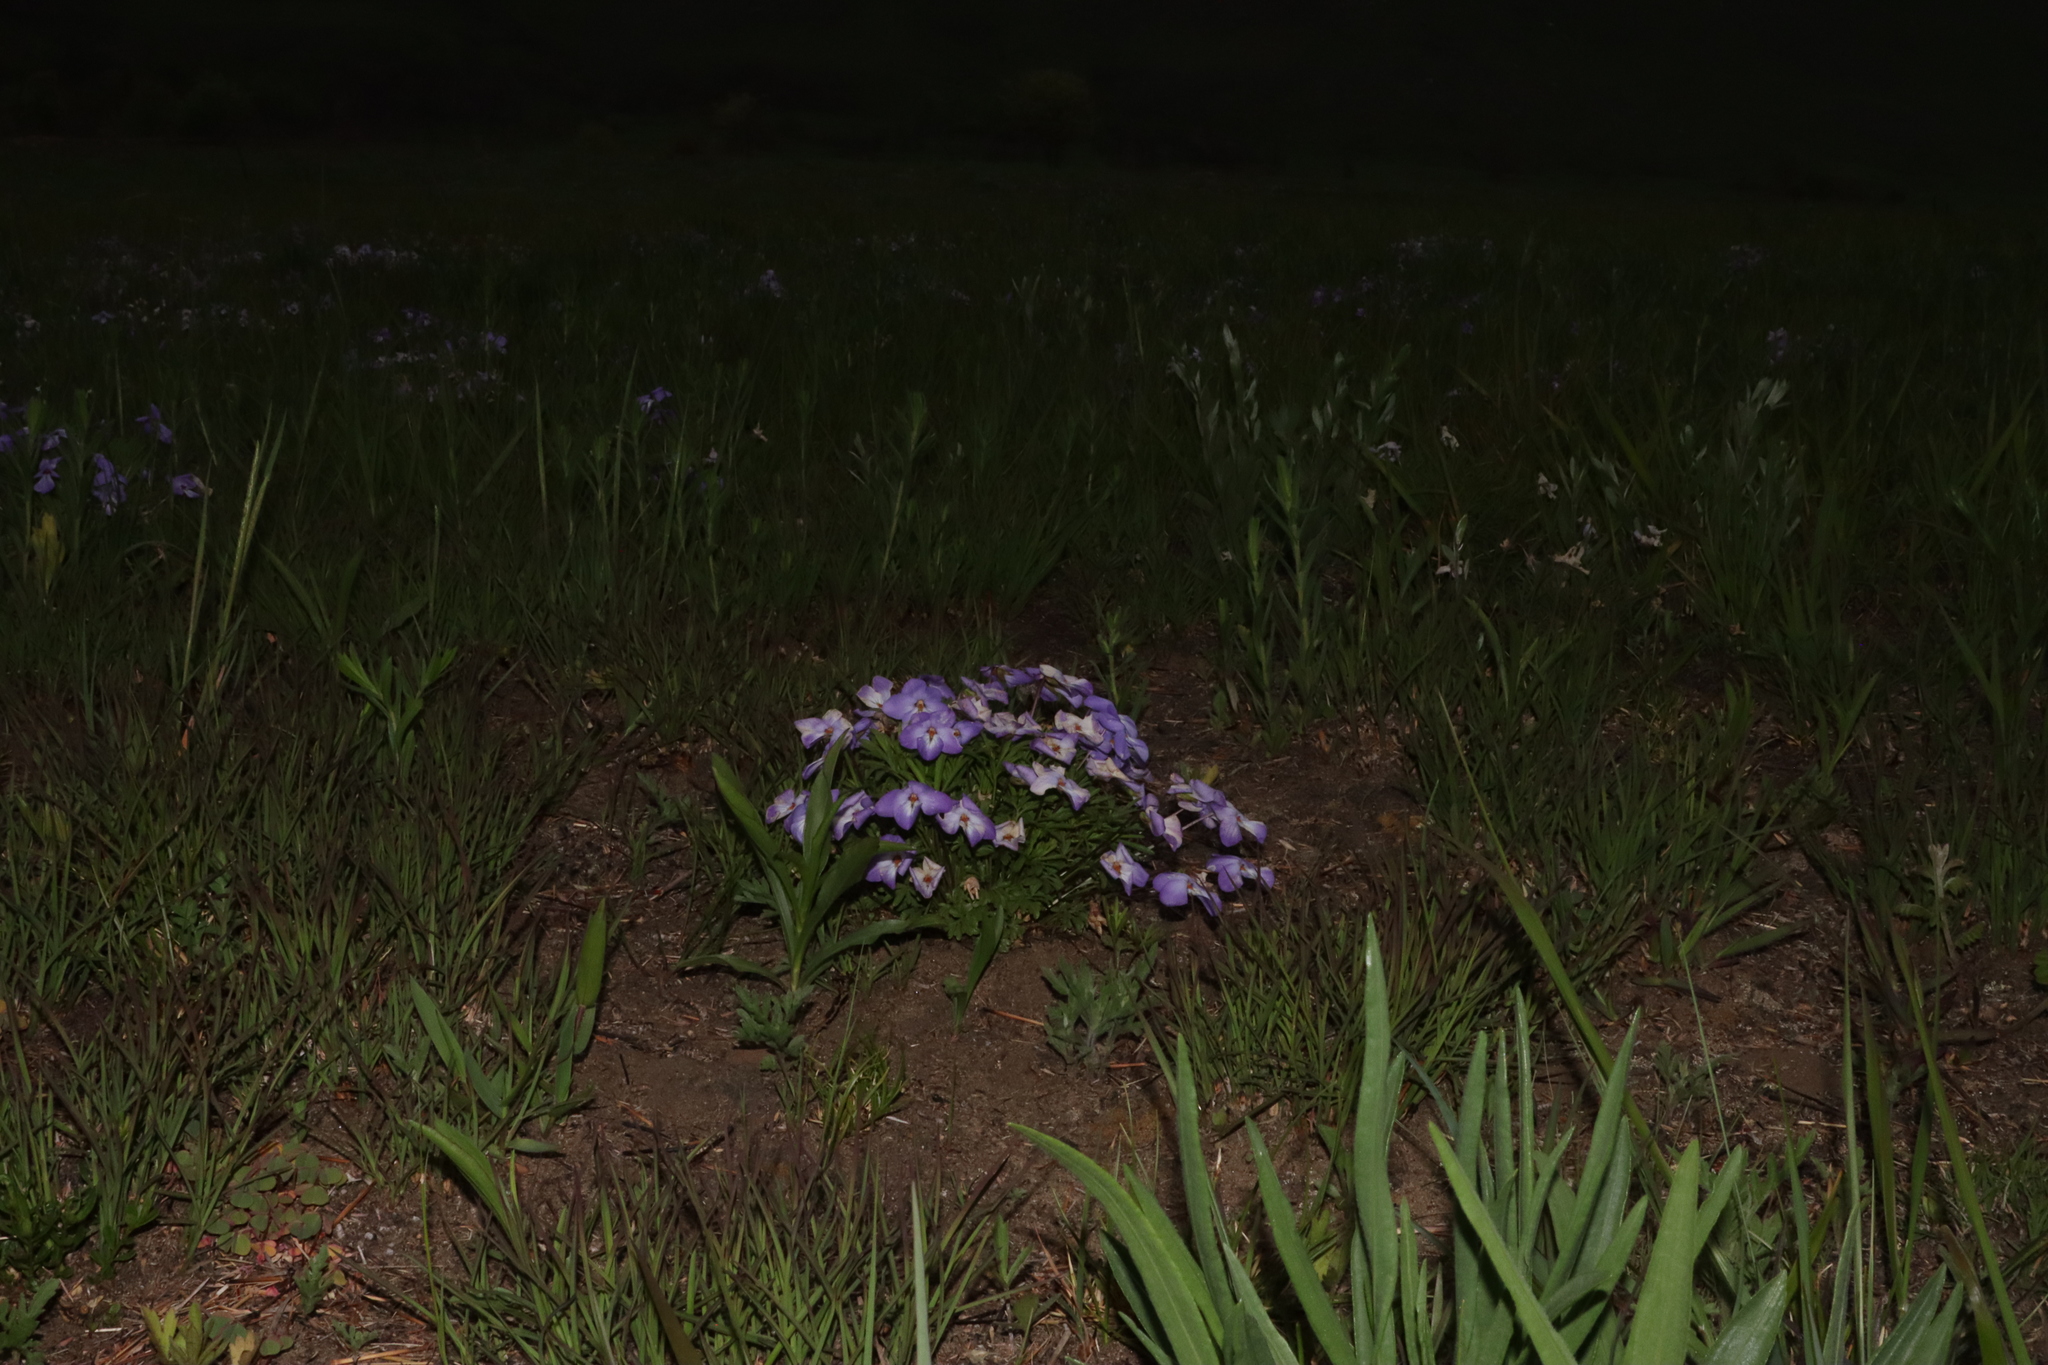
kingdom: Plantae
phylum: Tracheophyta
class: Magnoliopsida
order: Malpighiales
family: Violaceae
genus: Viola
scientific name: Viola pedata
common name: Pansy violet
